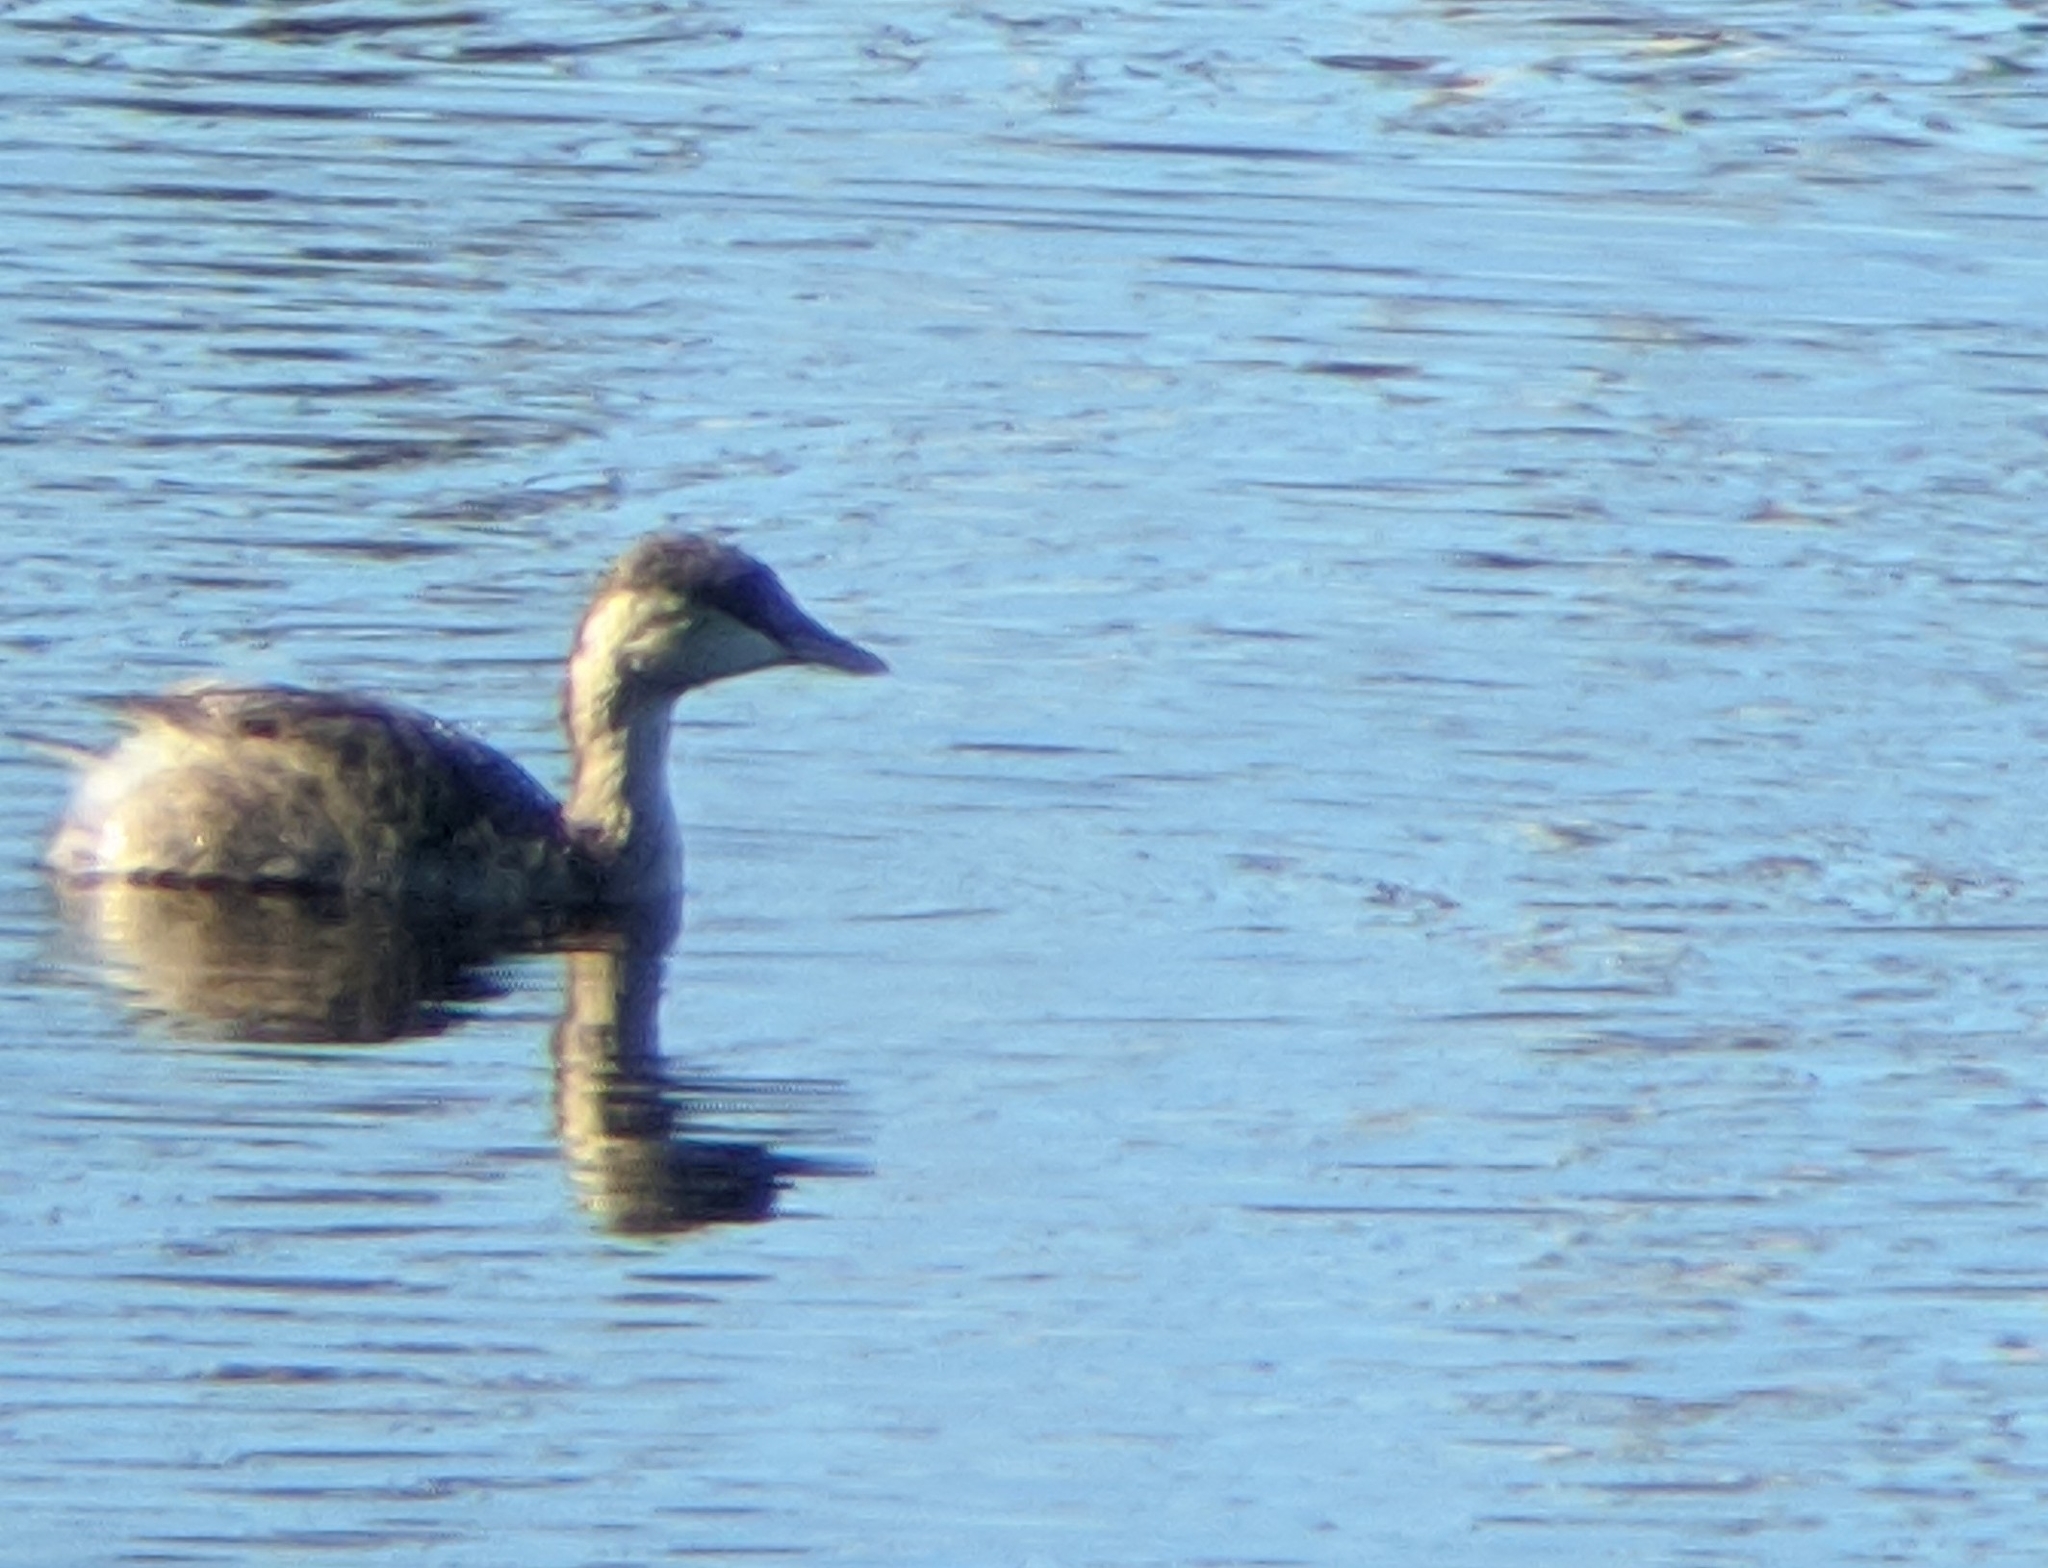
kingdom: Animalia
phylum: Chordata
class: Aves
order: Podicipediformes
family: Podicipedidae
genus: Poliocephalus
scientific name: Poliocephalus poliocephalus
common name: Hoary-headed grebe
